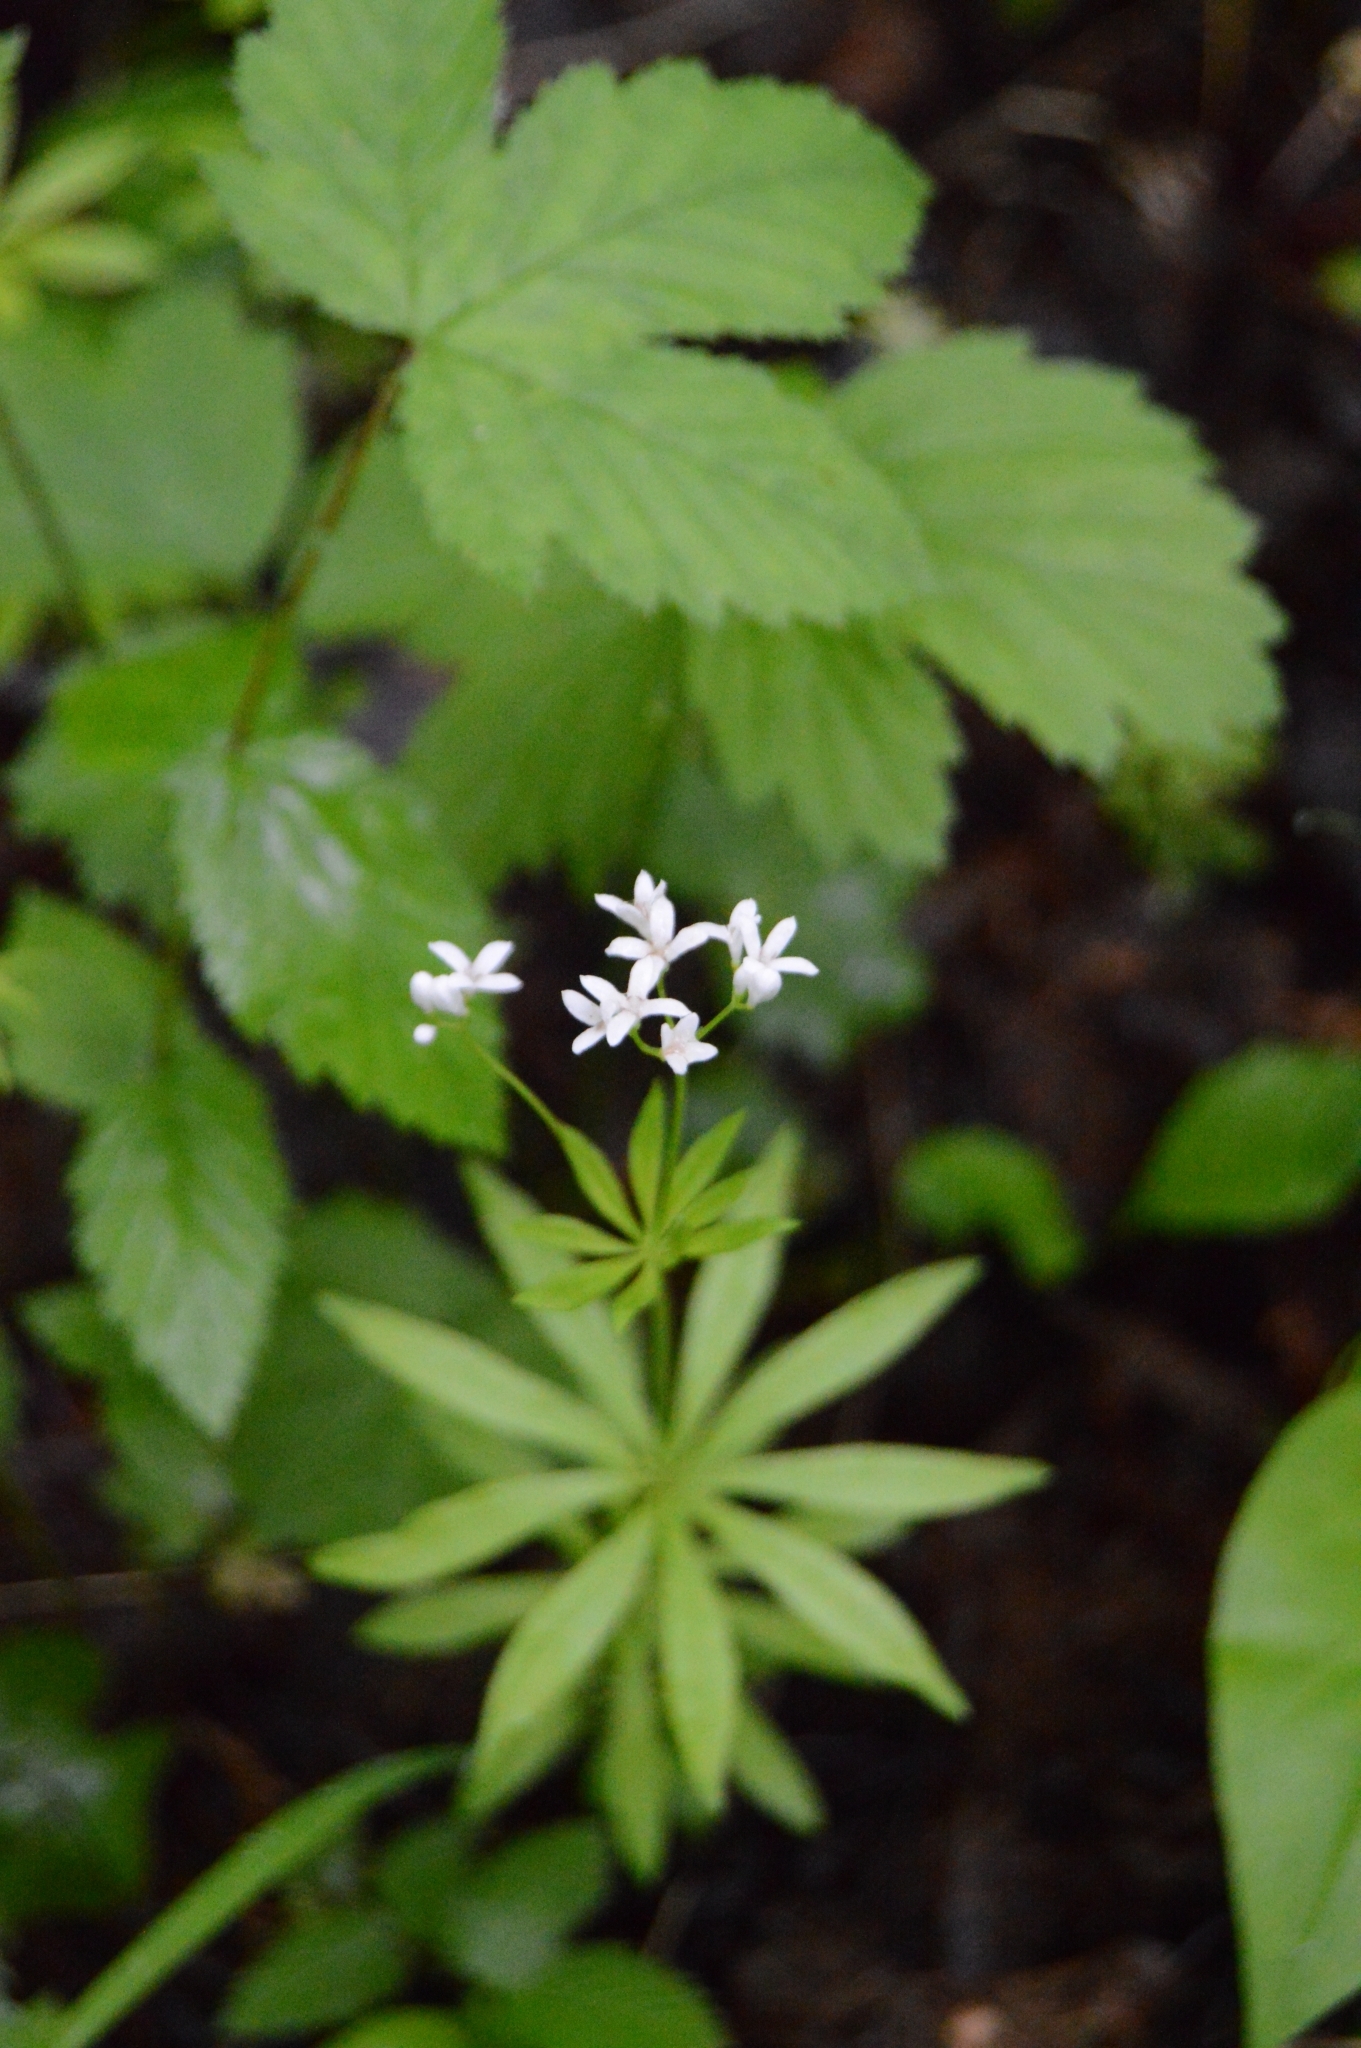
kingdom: Plantae
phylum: Tracheophyta
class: Magnoliopsida
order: Gentianales
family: Rubiaceae
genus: Galium
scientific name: Galium odoratum
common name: Sweet woodruff
